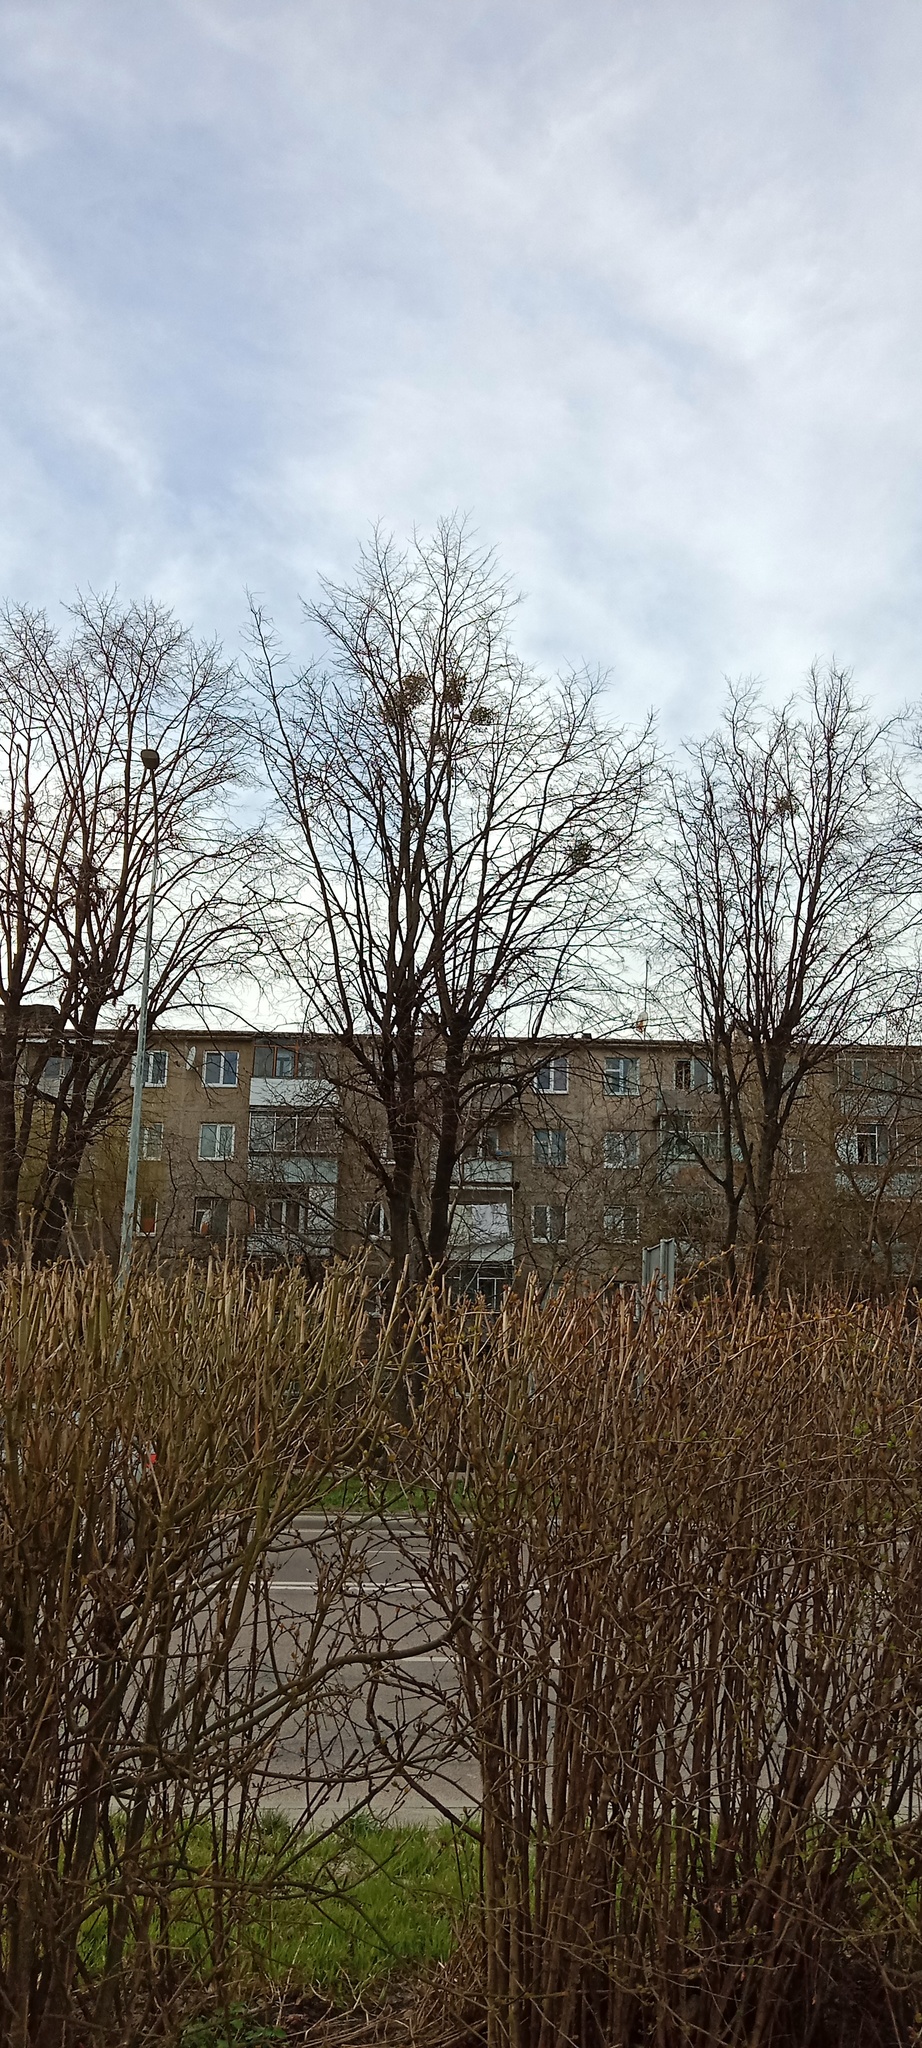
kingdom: Plantae
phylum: Tracheophyta
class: Magnoliopsida
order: Santalales
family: Viscaceae
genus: Viscum
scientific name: Viscum album
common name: Mistletoe
